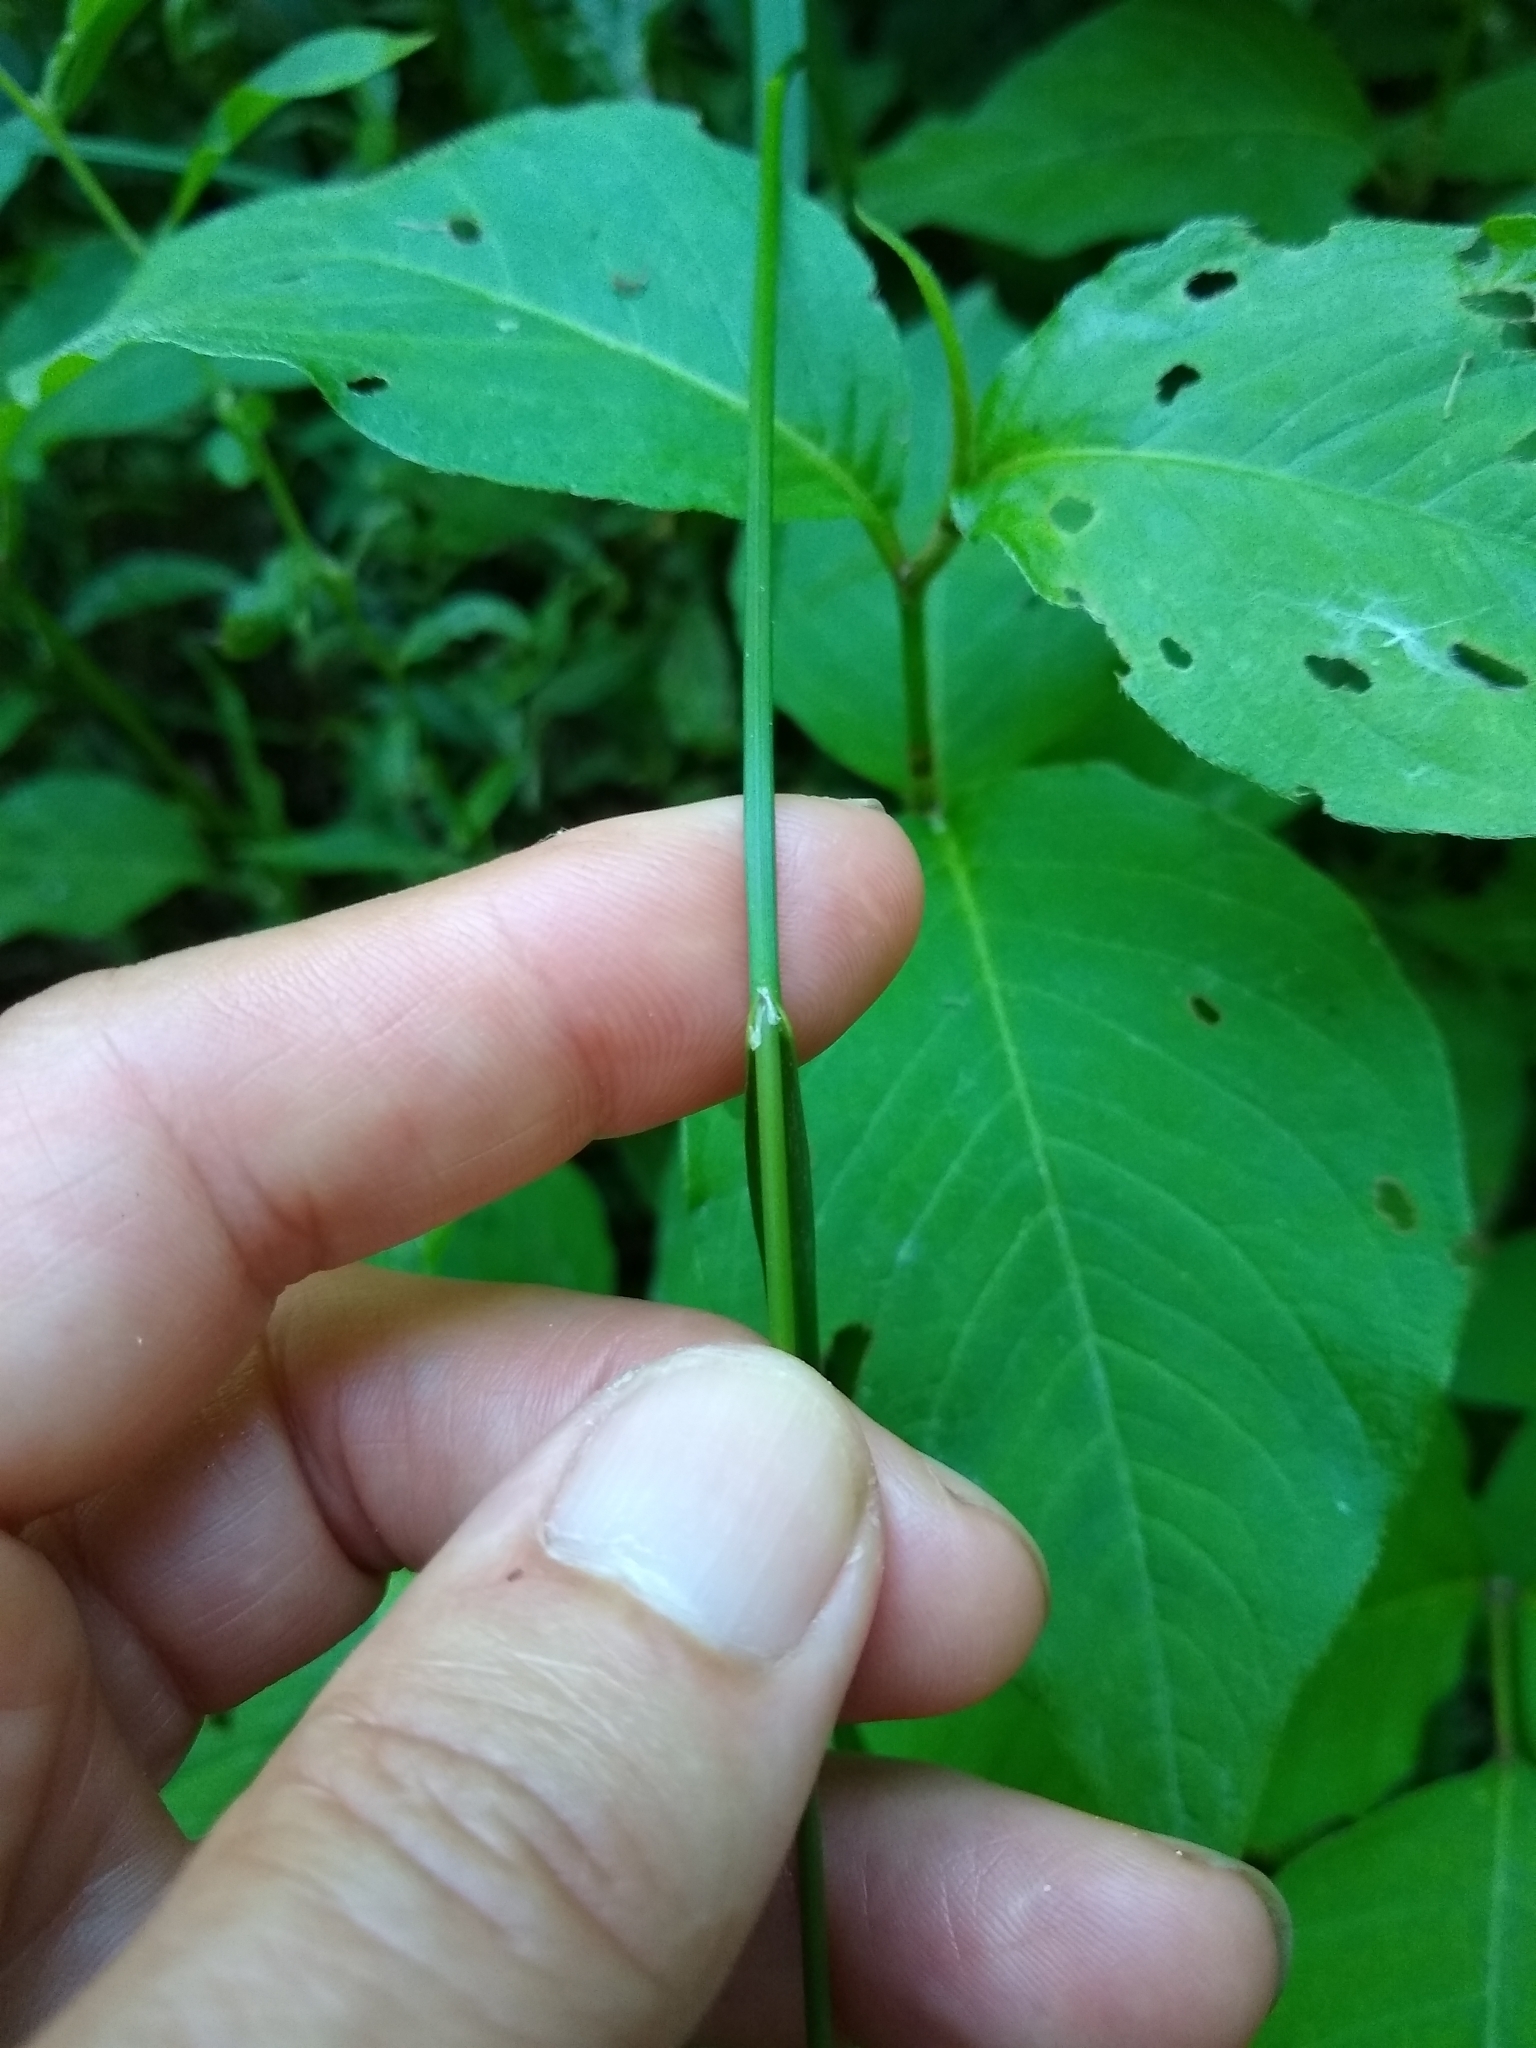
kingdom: Plantae
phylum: Tracheophyta
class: Liliopsida
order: Poales
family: Poaceae
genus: Glyceria
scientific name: Glyceria striata
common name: Fowl manna grass
